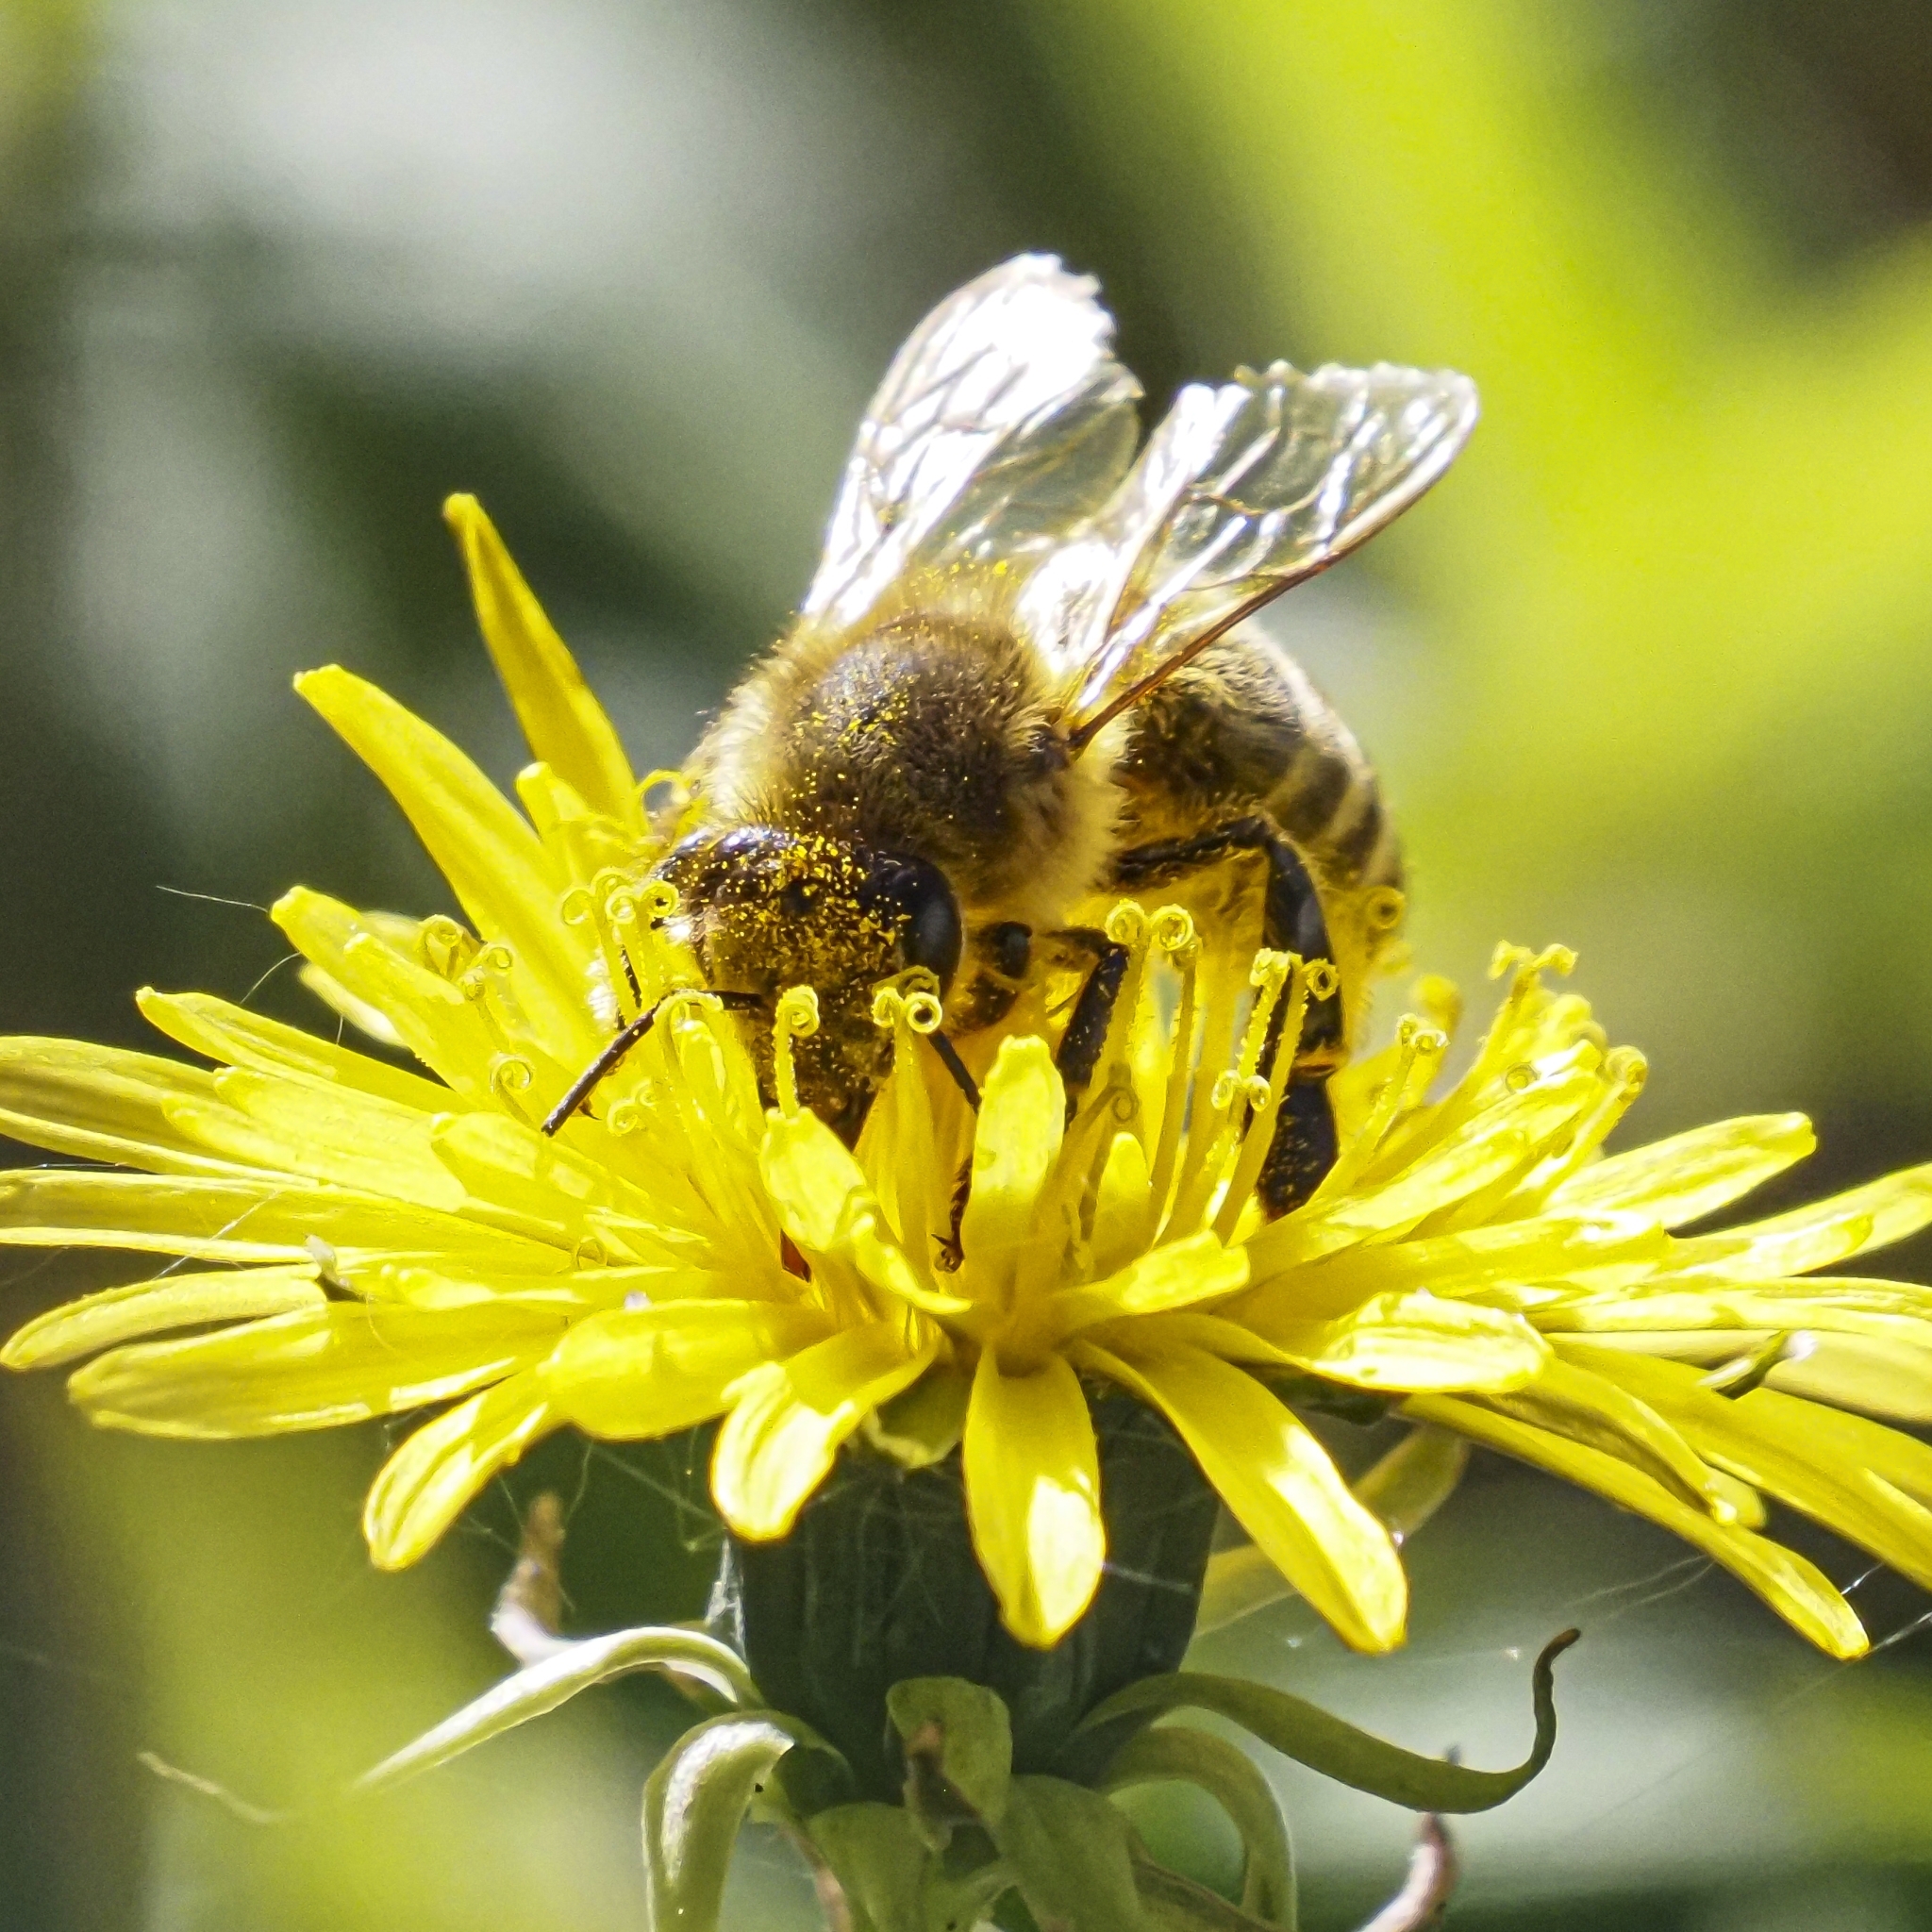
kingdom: Animalia
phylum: Arthropoda
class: Insecta
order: Hymenoptera
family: Apidae
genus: Apis
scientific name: Apis mellifera
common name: Honey bee
